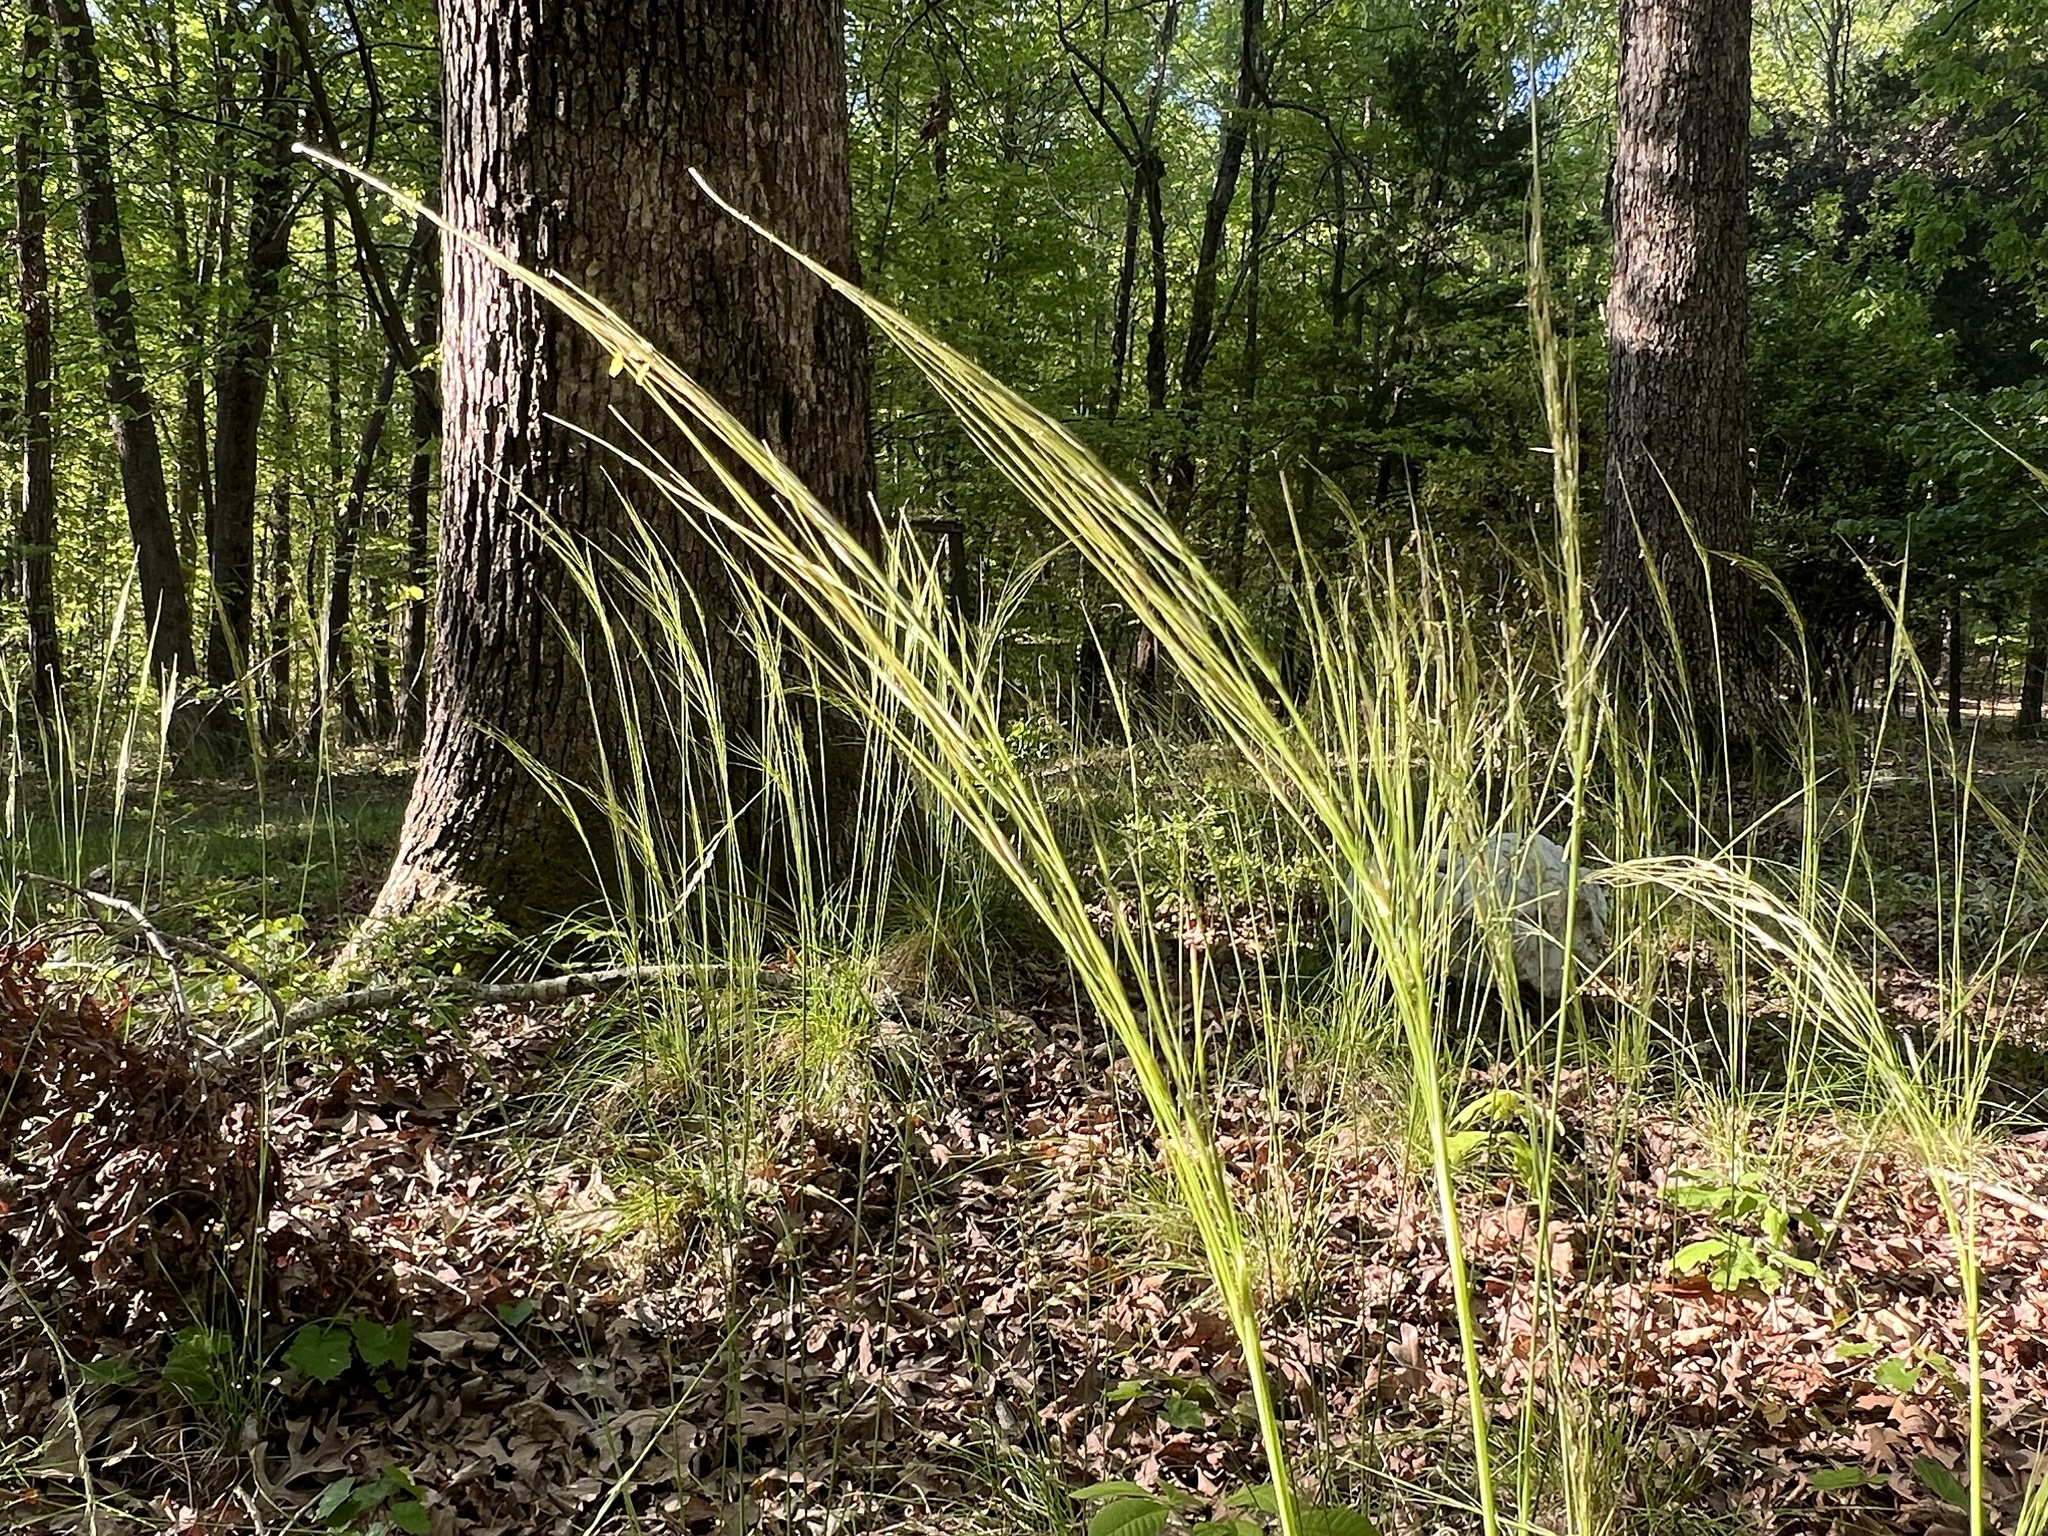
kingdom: Plantae
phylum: Tracheophyta
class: Liliopsida
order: Poales
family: Poaceae
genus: Piptochaetium
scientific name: Piptochaetium avenaceum
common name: Black bunchgrass
